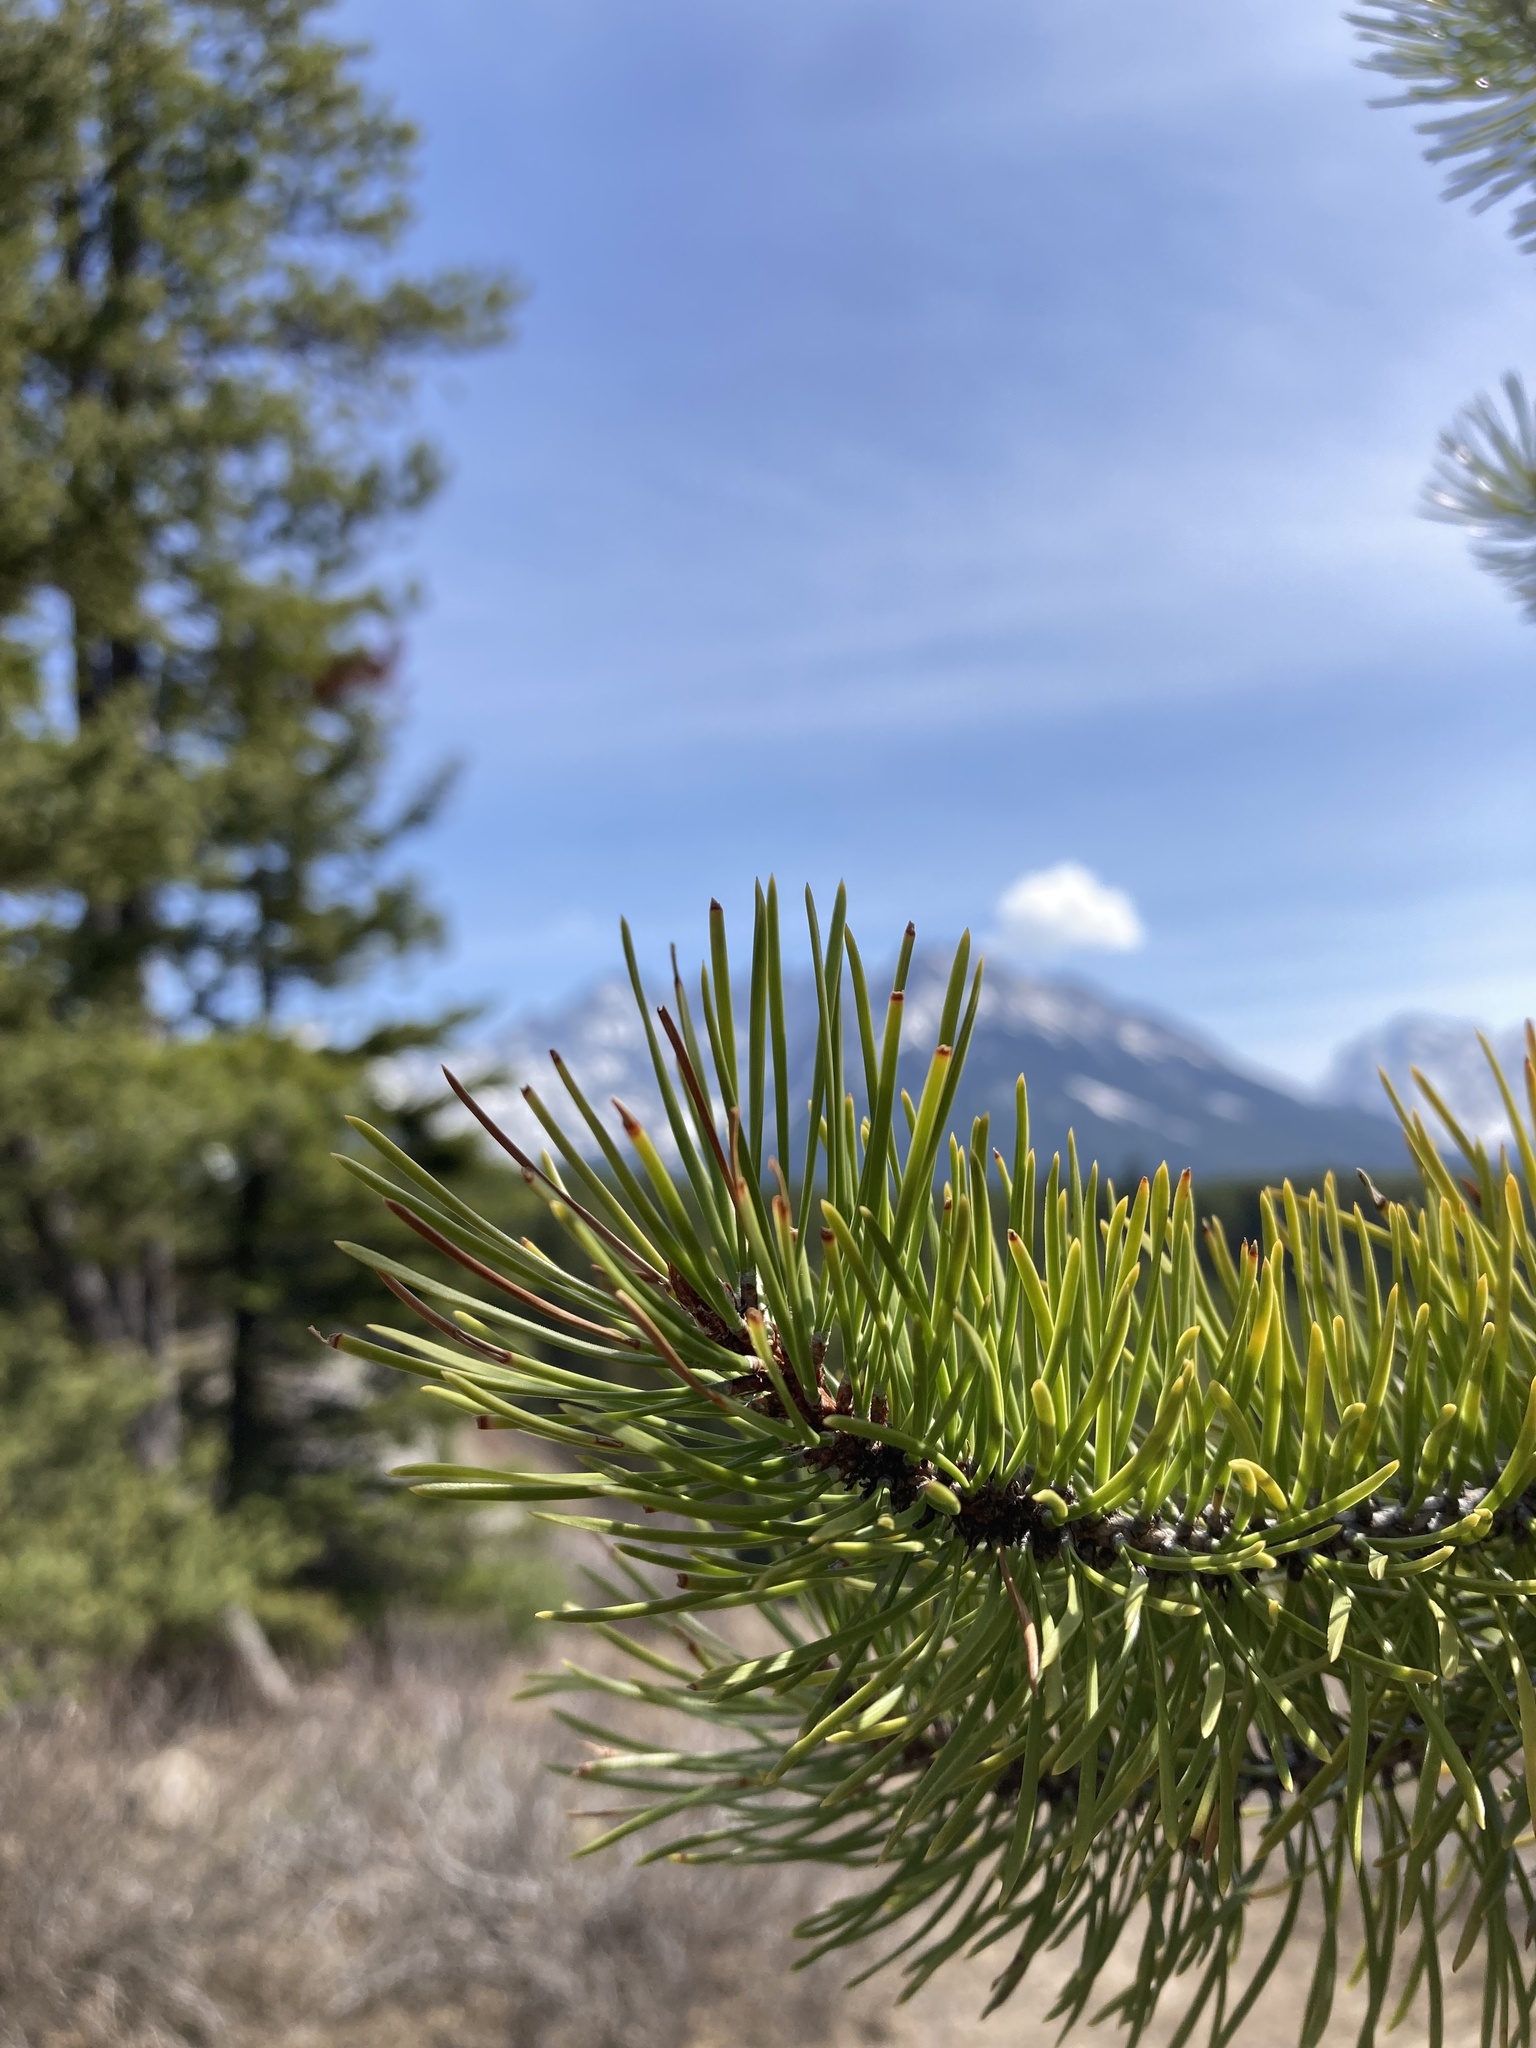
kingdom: Plantae
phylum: Tracheophyta
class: Pinopsida
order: Pinales
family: Pinaceae
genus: Pinus
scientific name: Pinus contorta
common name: Lodgepole pine
